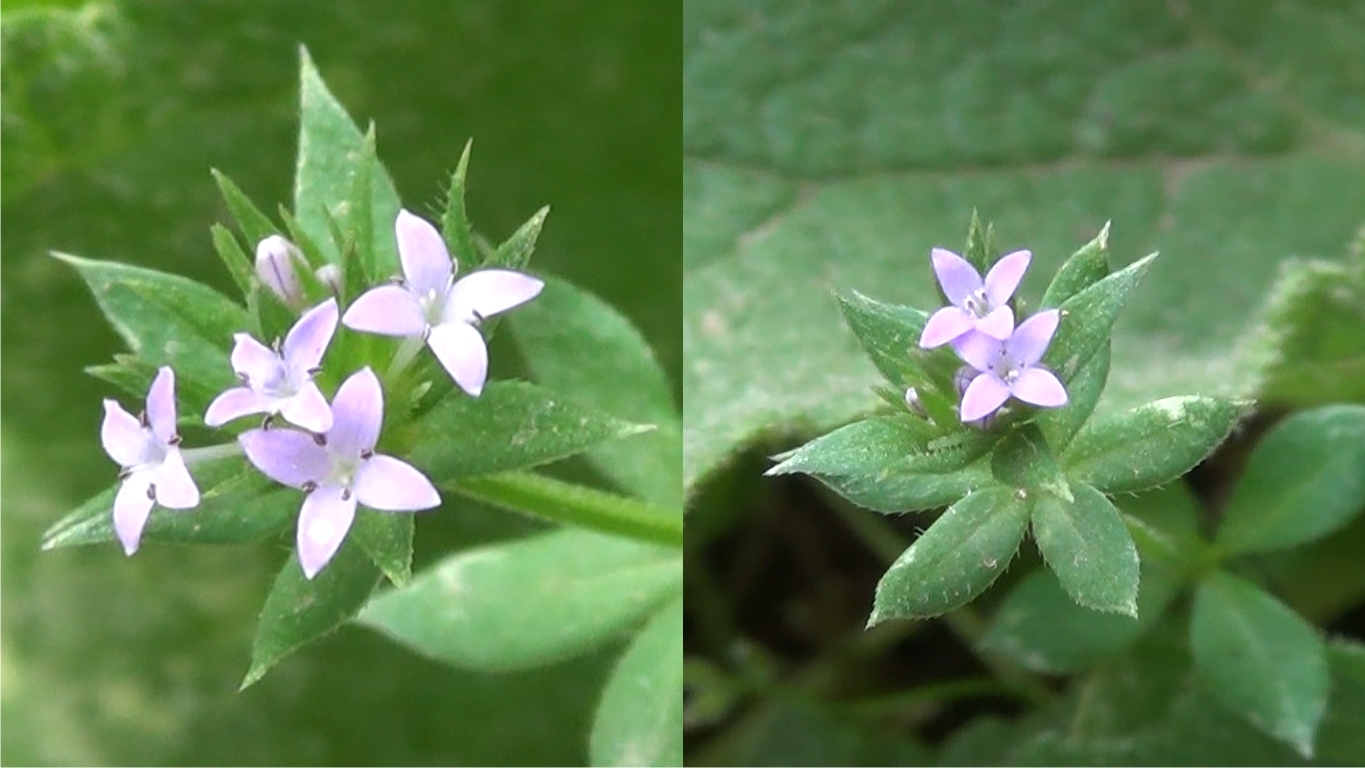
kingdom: Plantae
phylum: Tracheophyta
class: Magnoliopsida
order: Gentianales
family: Rubiaceae
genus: Sherardia
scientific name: Sherardia arvensis
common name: Field madder
